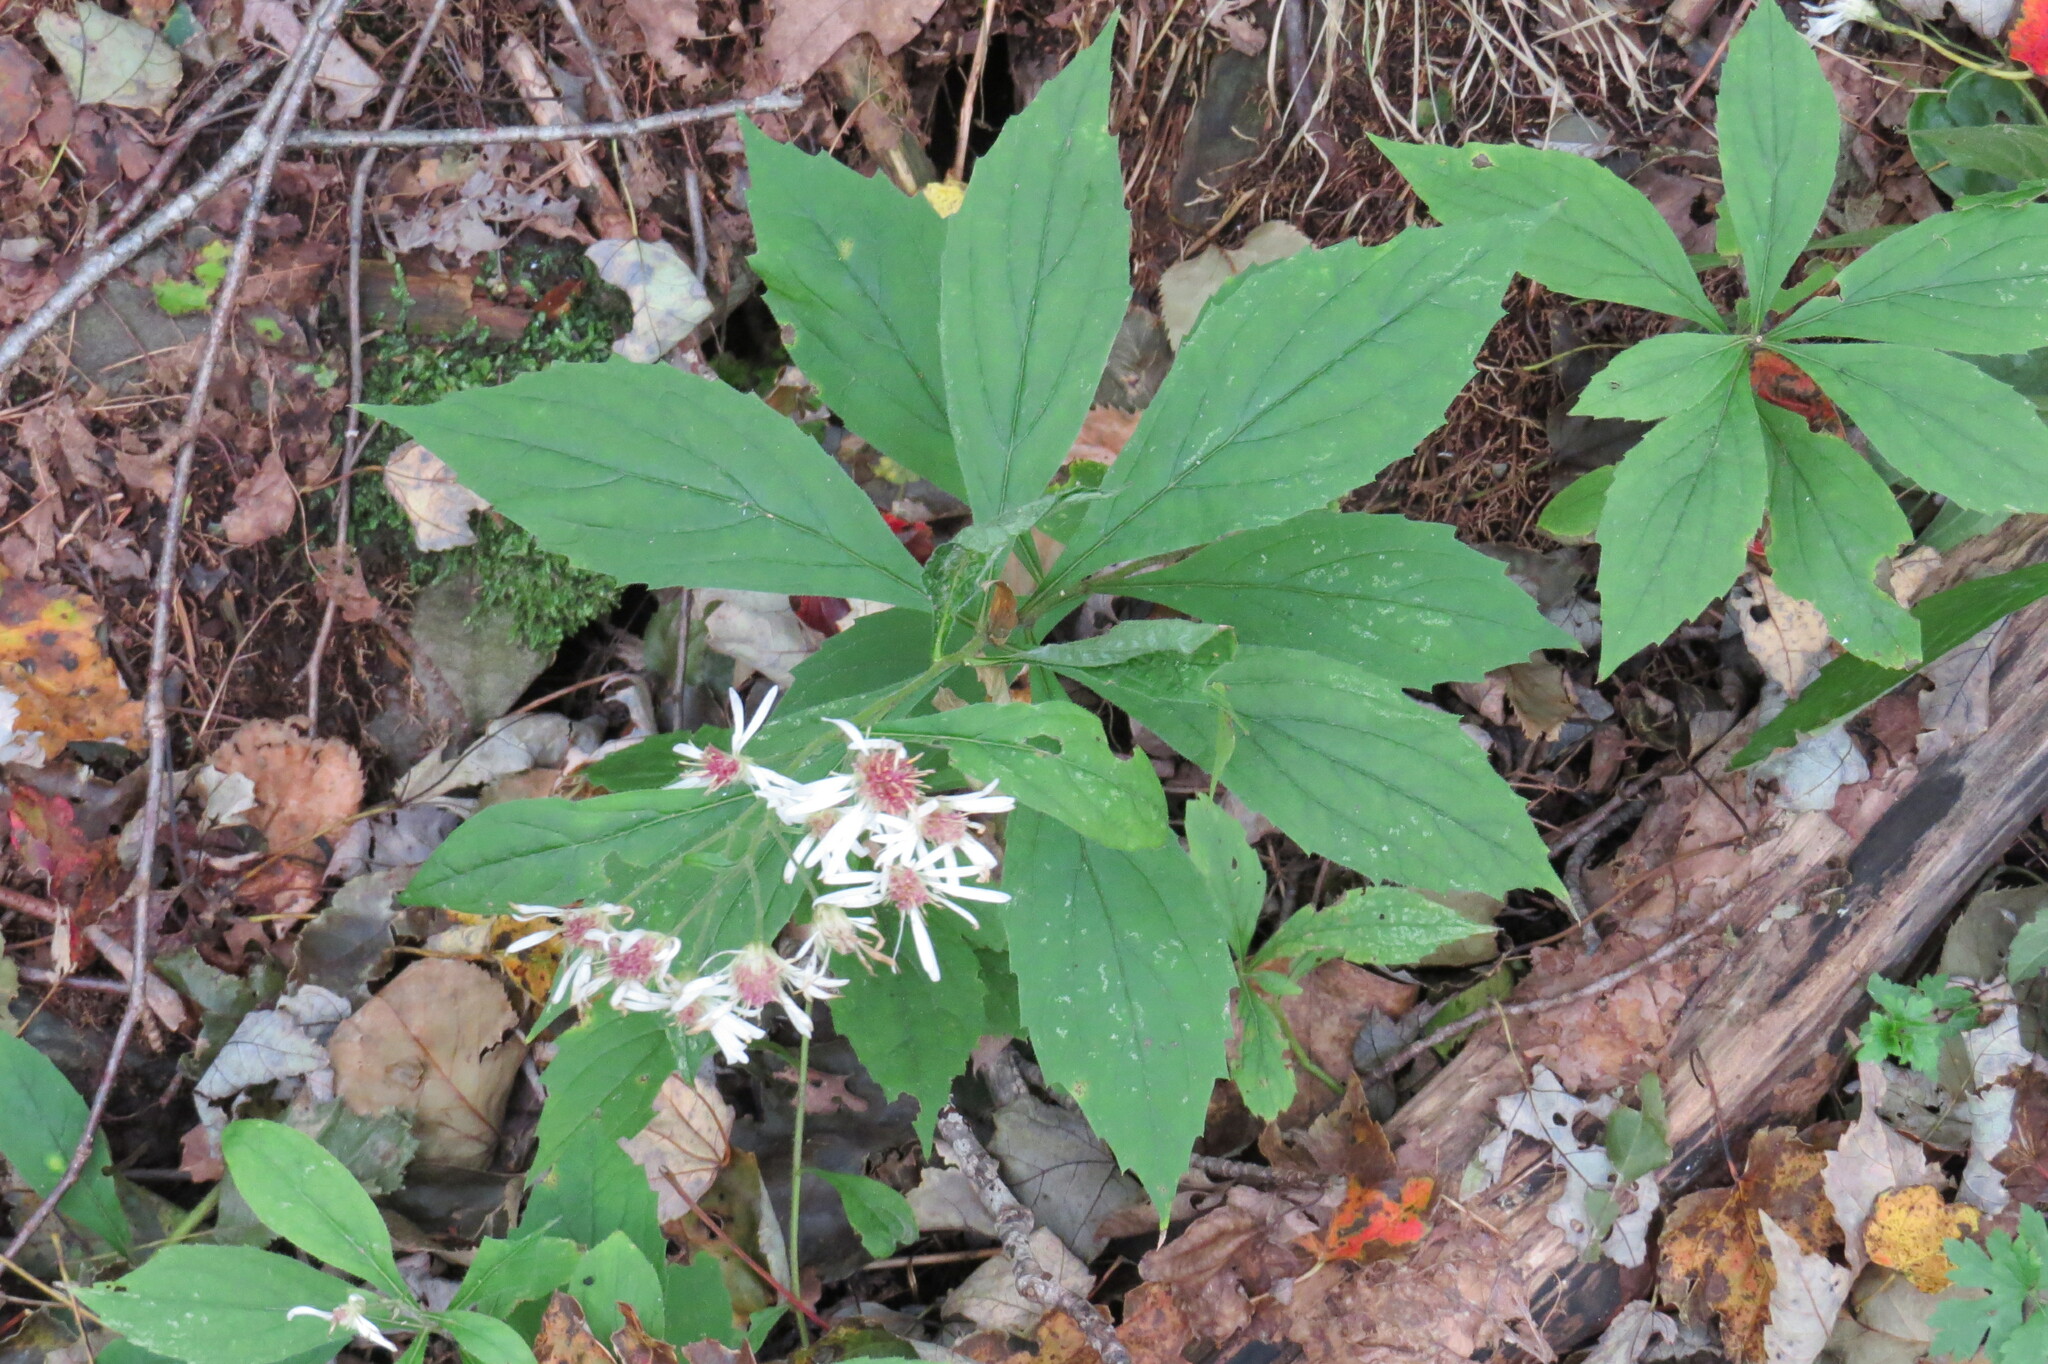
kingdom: Plantae
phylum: Tracheophyta
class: Magnoliopsida
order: Asterales
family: Asteraceae
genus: Oclemena
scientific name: Oclemena acuminata
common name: Mountain aster
